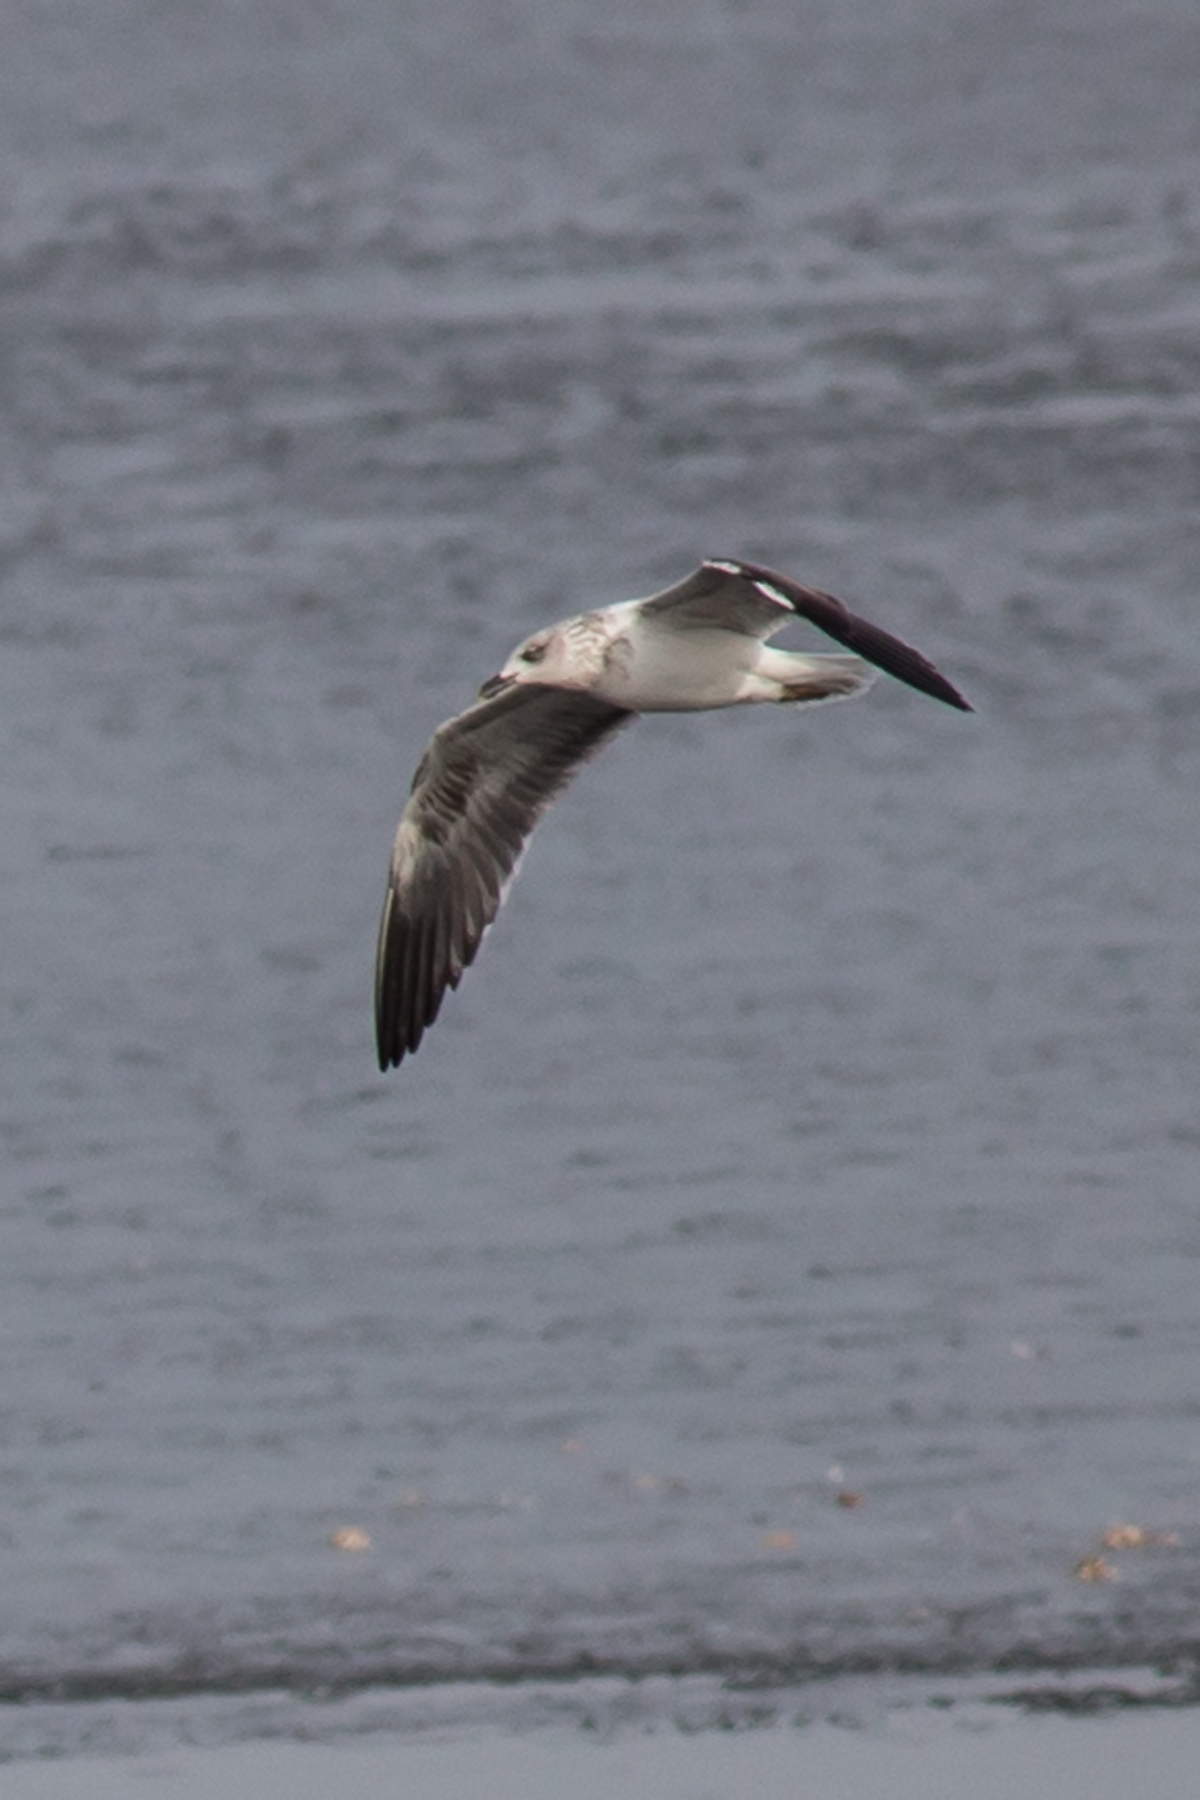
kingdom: Animalia
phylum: Chordata
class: Aves
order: Charadriiformes
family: Laridae
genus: Larus
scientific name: Larus fuscus
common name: Lesser black-backed gull
